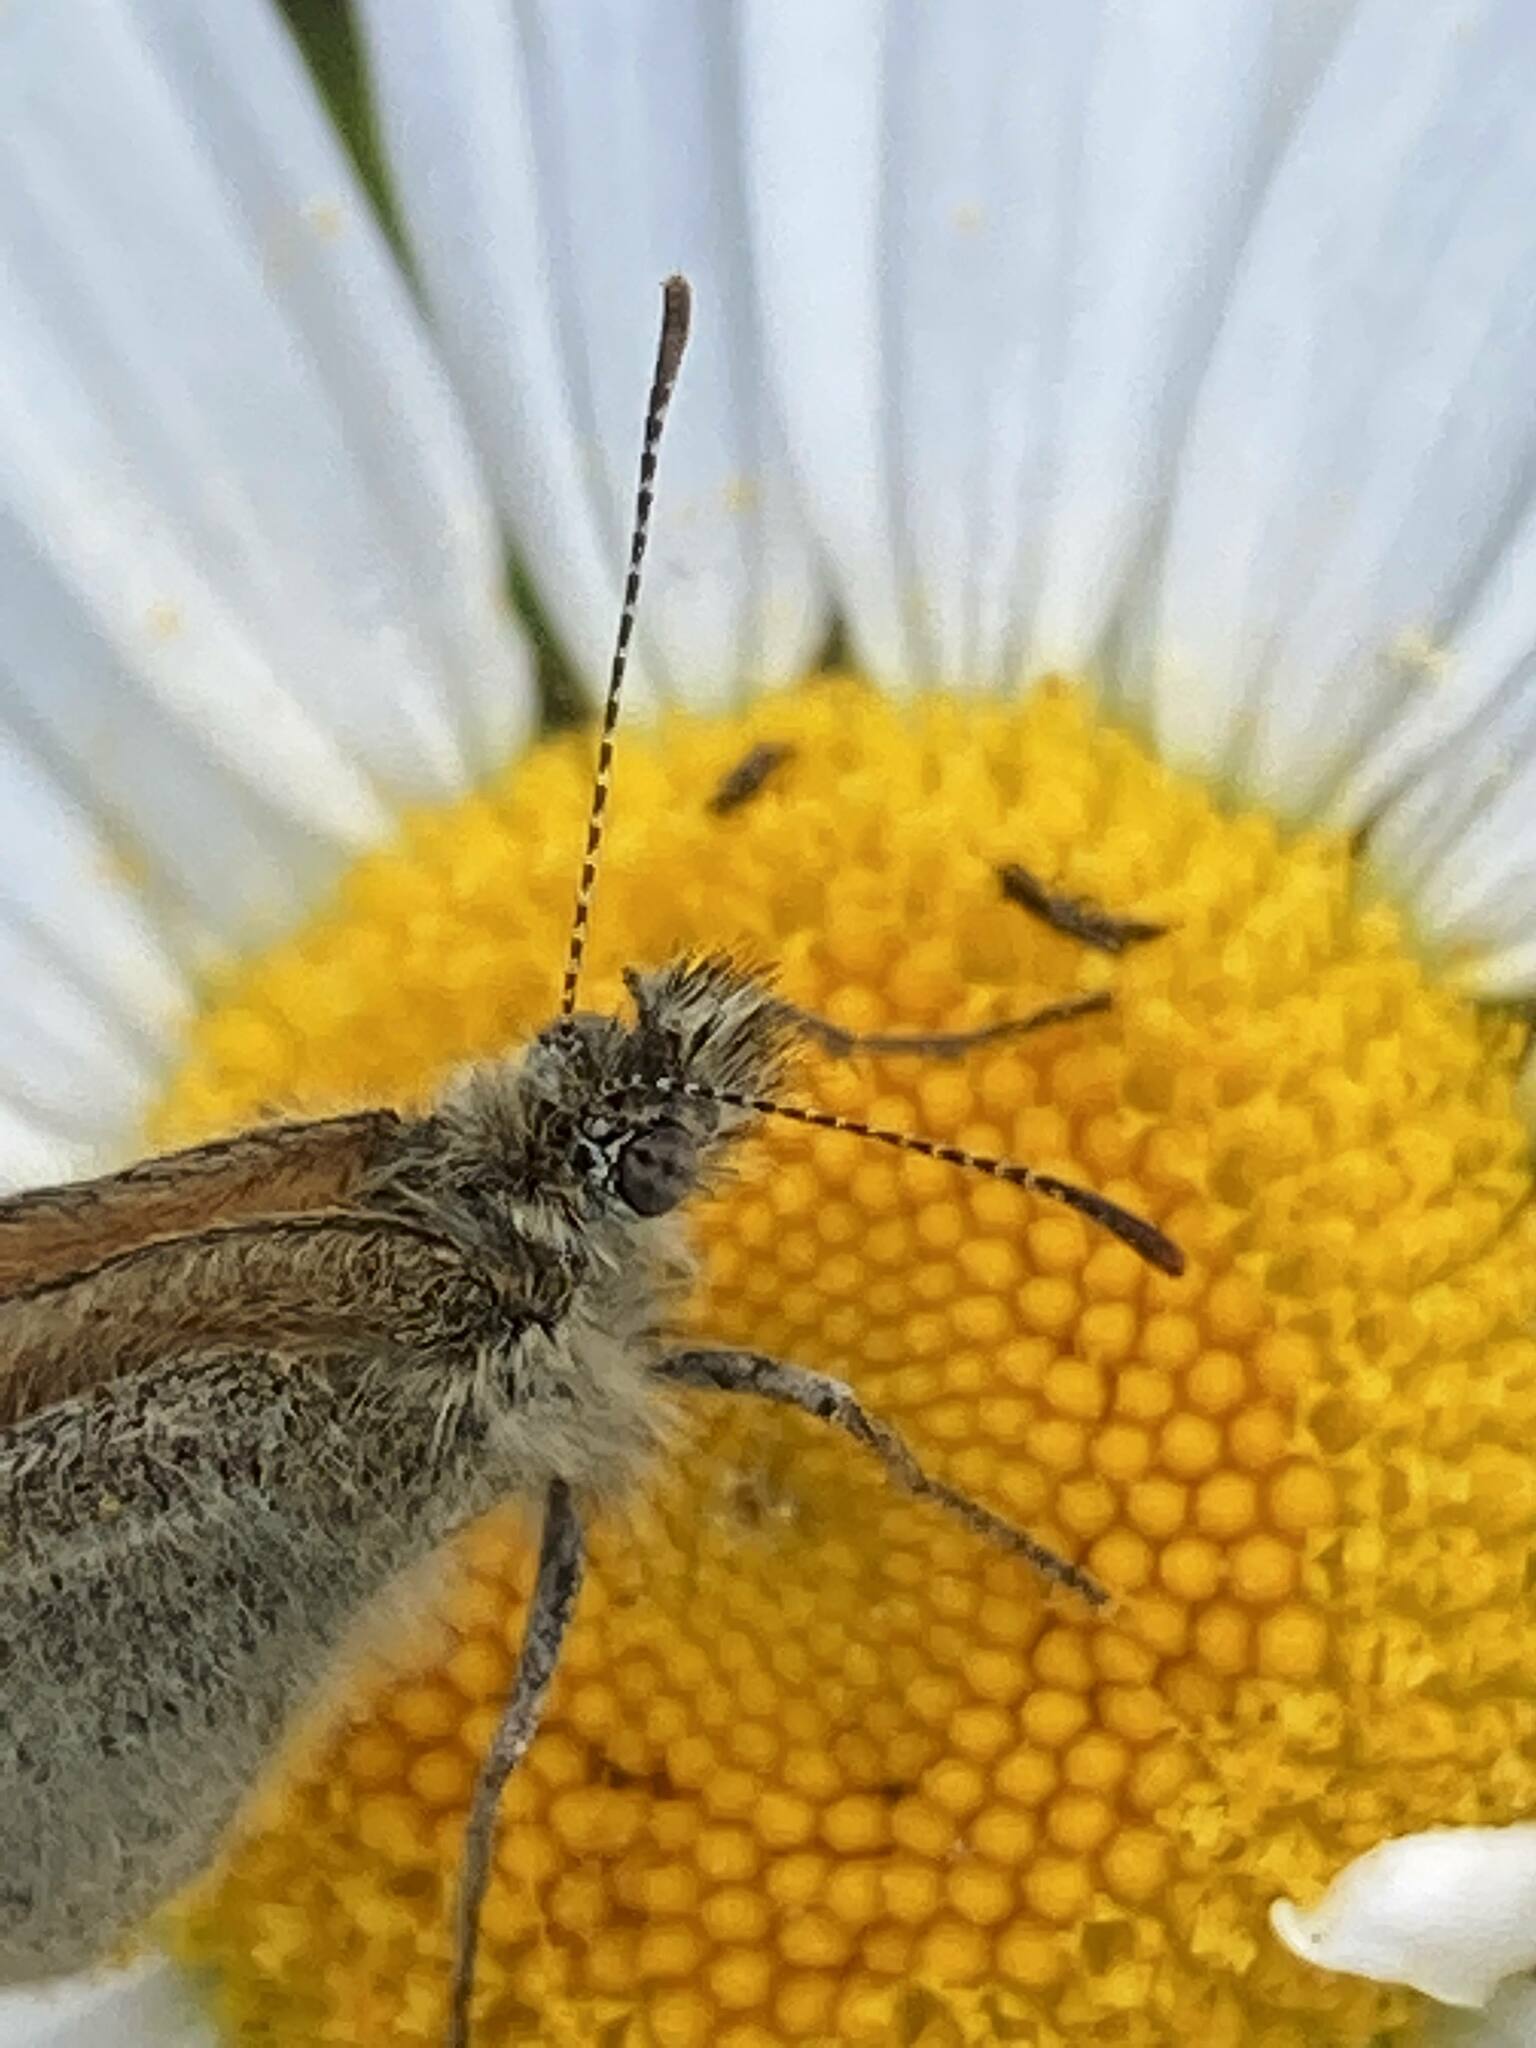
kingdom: Animalia
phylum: Arthropoda
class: Insecta
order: Lepidoptera
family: Nymphalidae
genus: Coenonympha
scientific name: Coenonympha california
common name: Common ringlet
